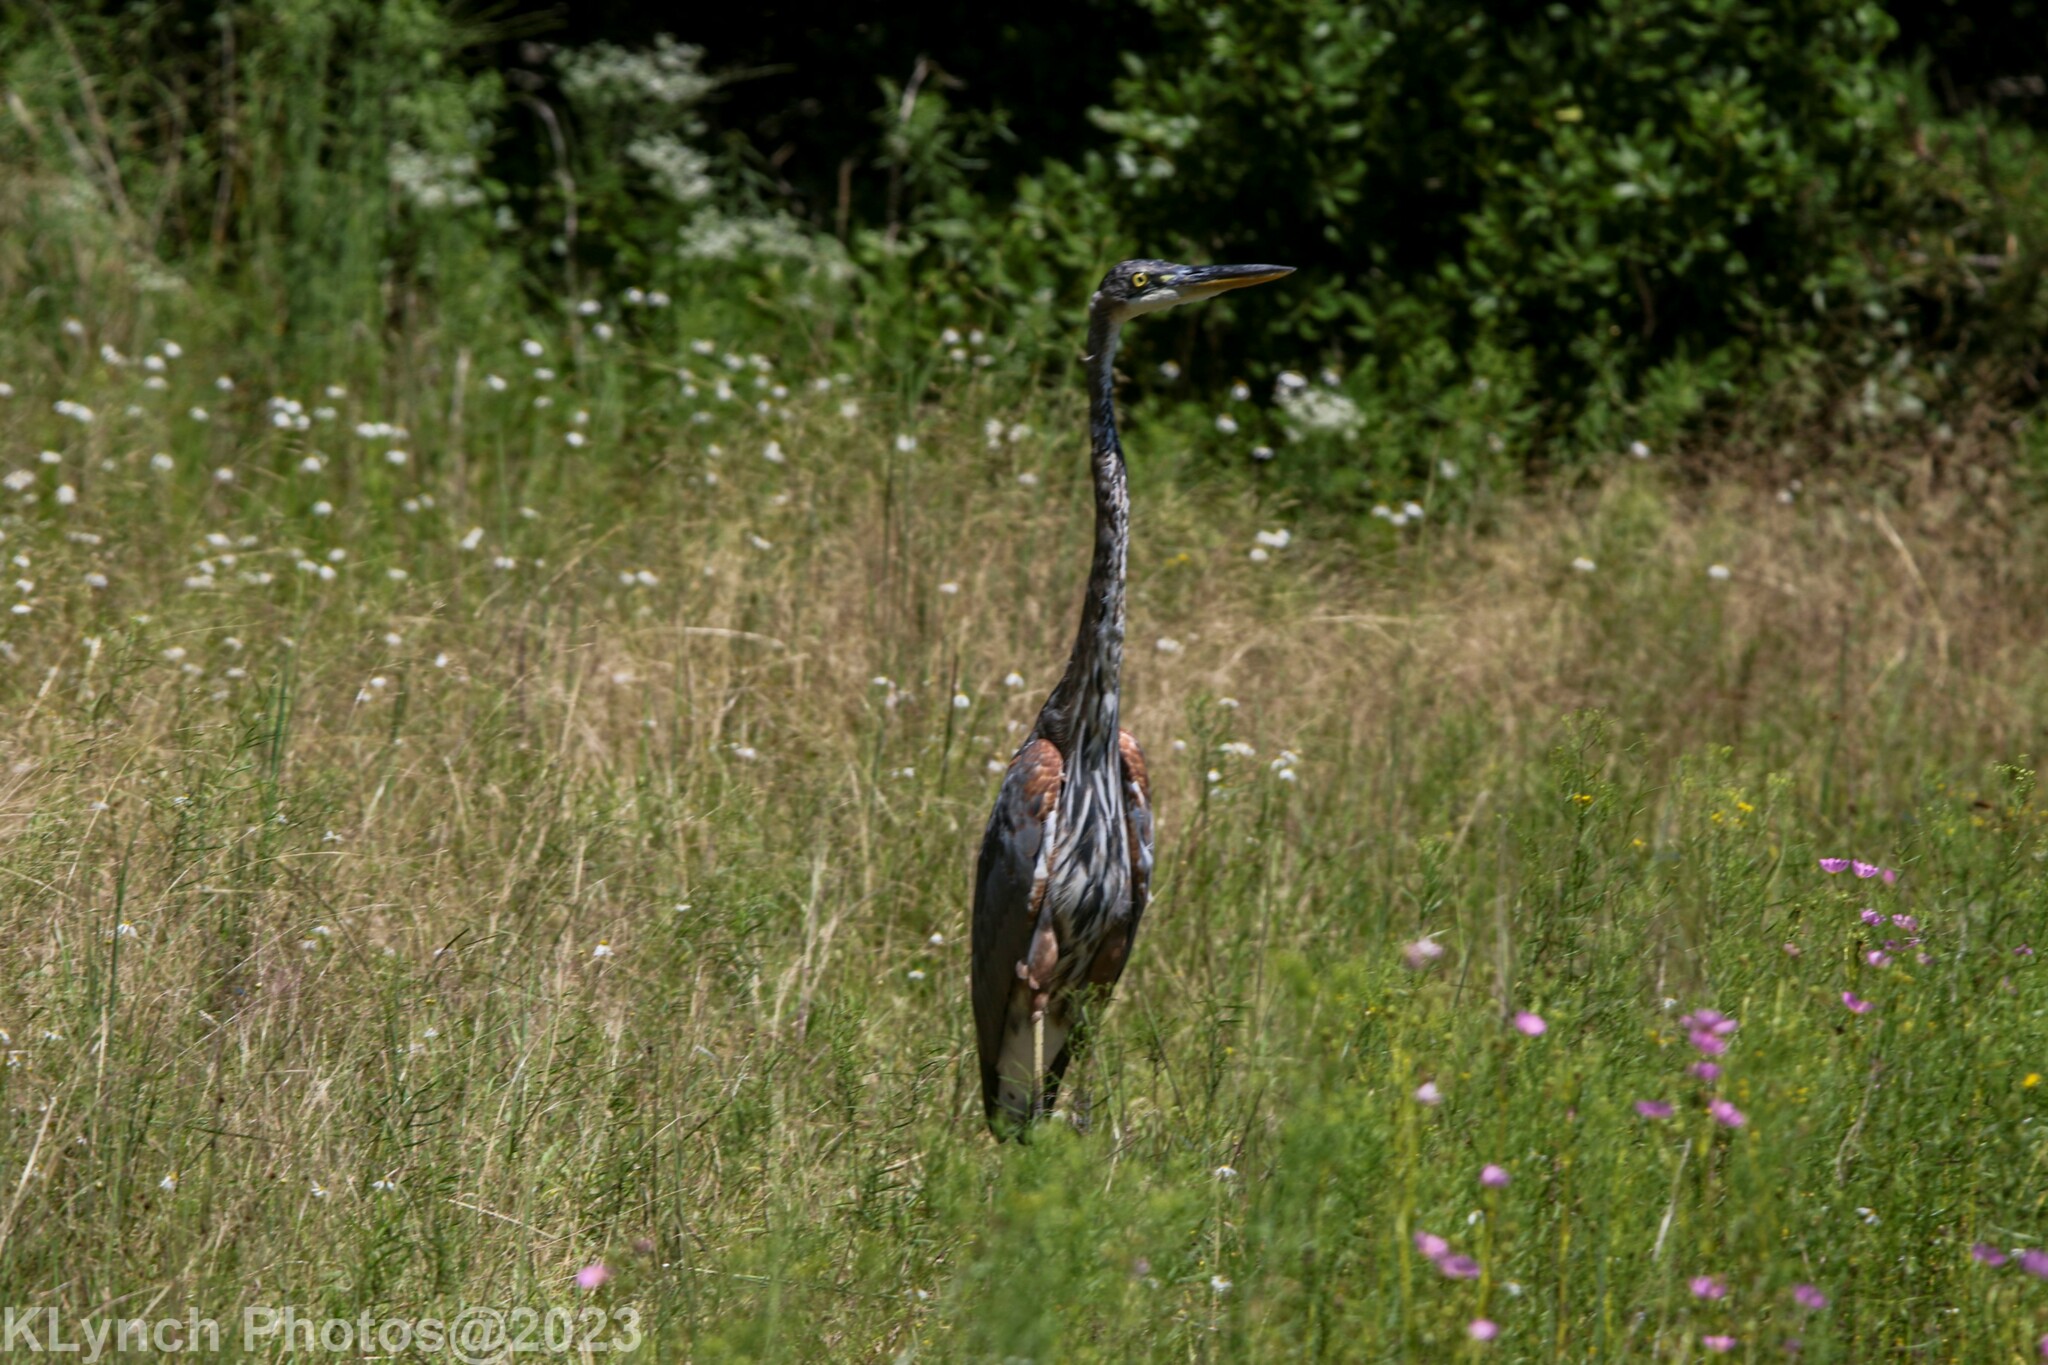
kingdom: Animalia
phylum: Chordata
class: Aves
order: Pelecaniformes
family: Ardeidae
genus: Ardea
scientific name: Ardea herodias
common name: Great blue heron
